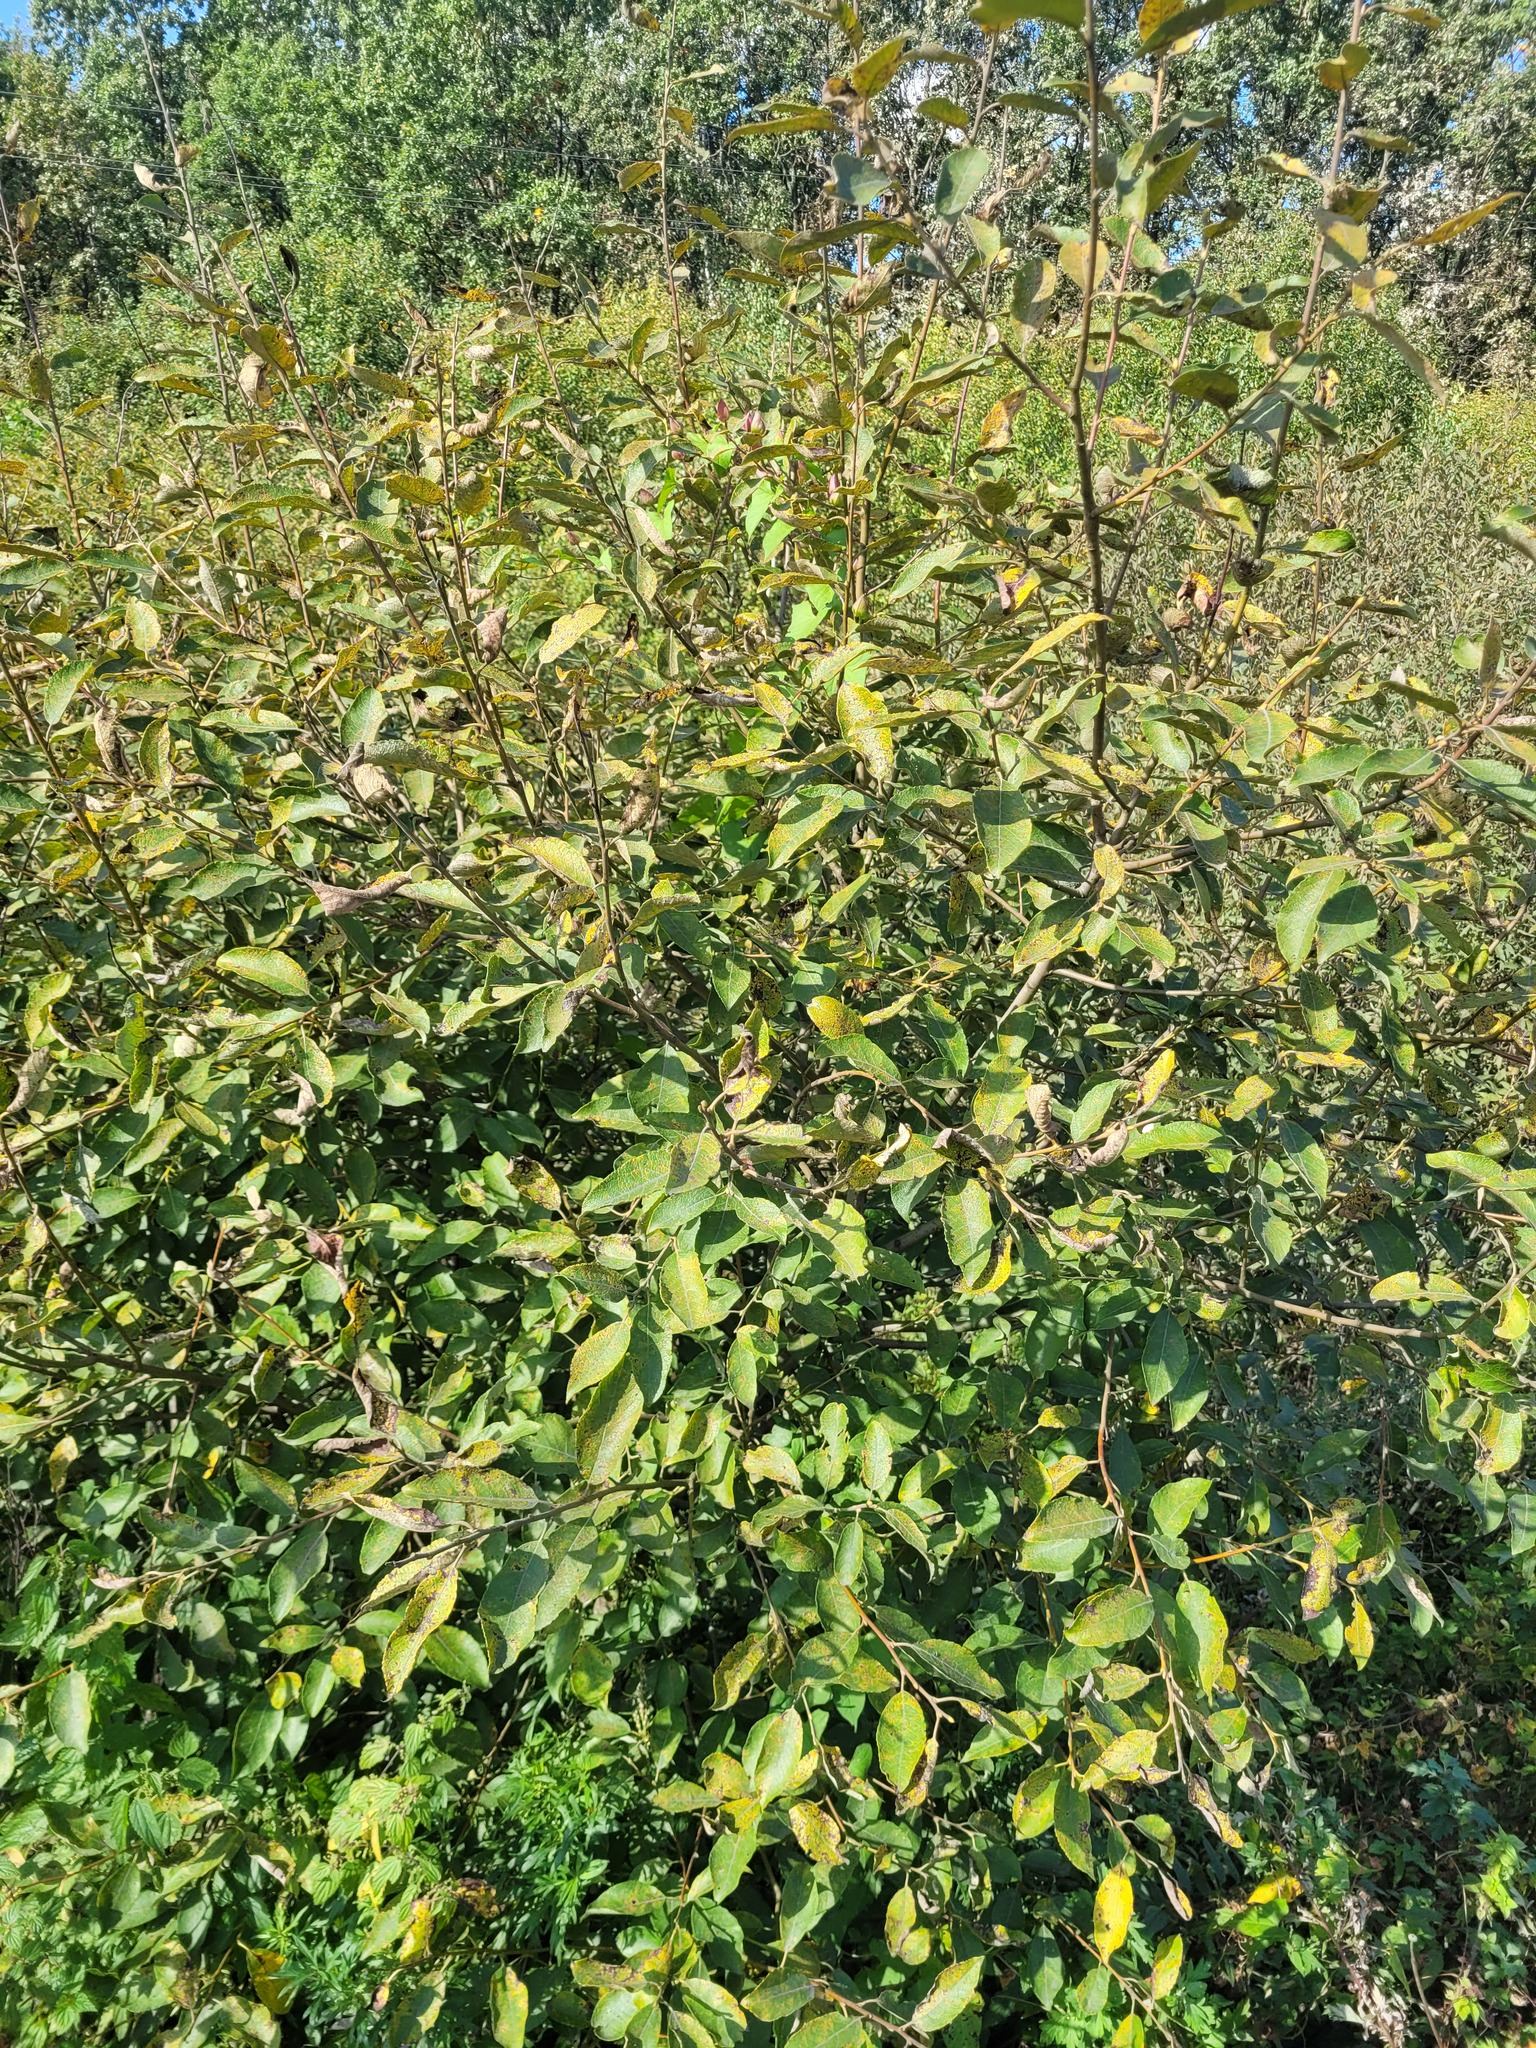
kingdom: Plantae
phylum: Tracheophyta
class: Magnoliopsida
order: Malpighiales
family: Salicaceae
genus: Salix
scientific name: Salix caprea
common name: Goat willow
